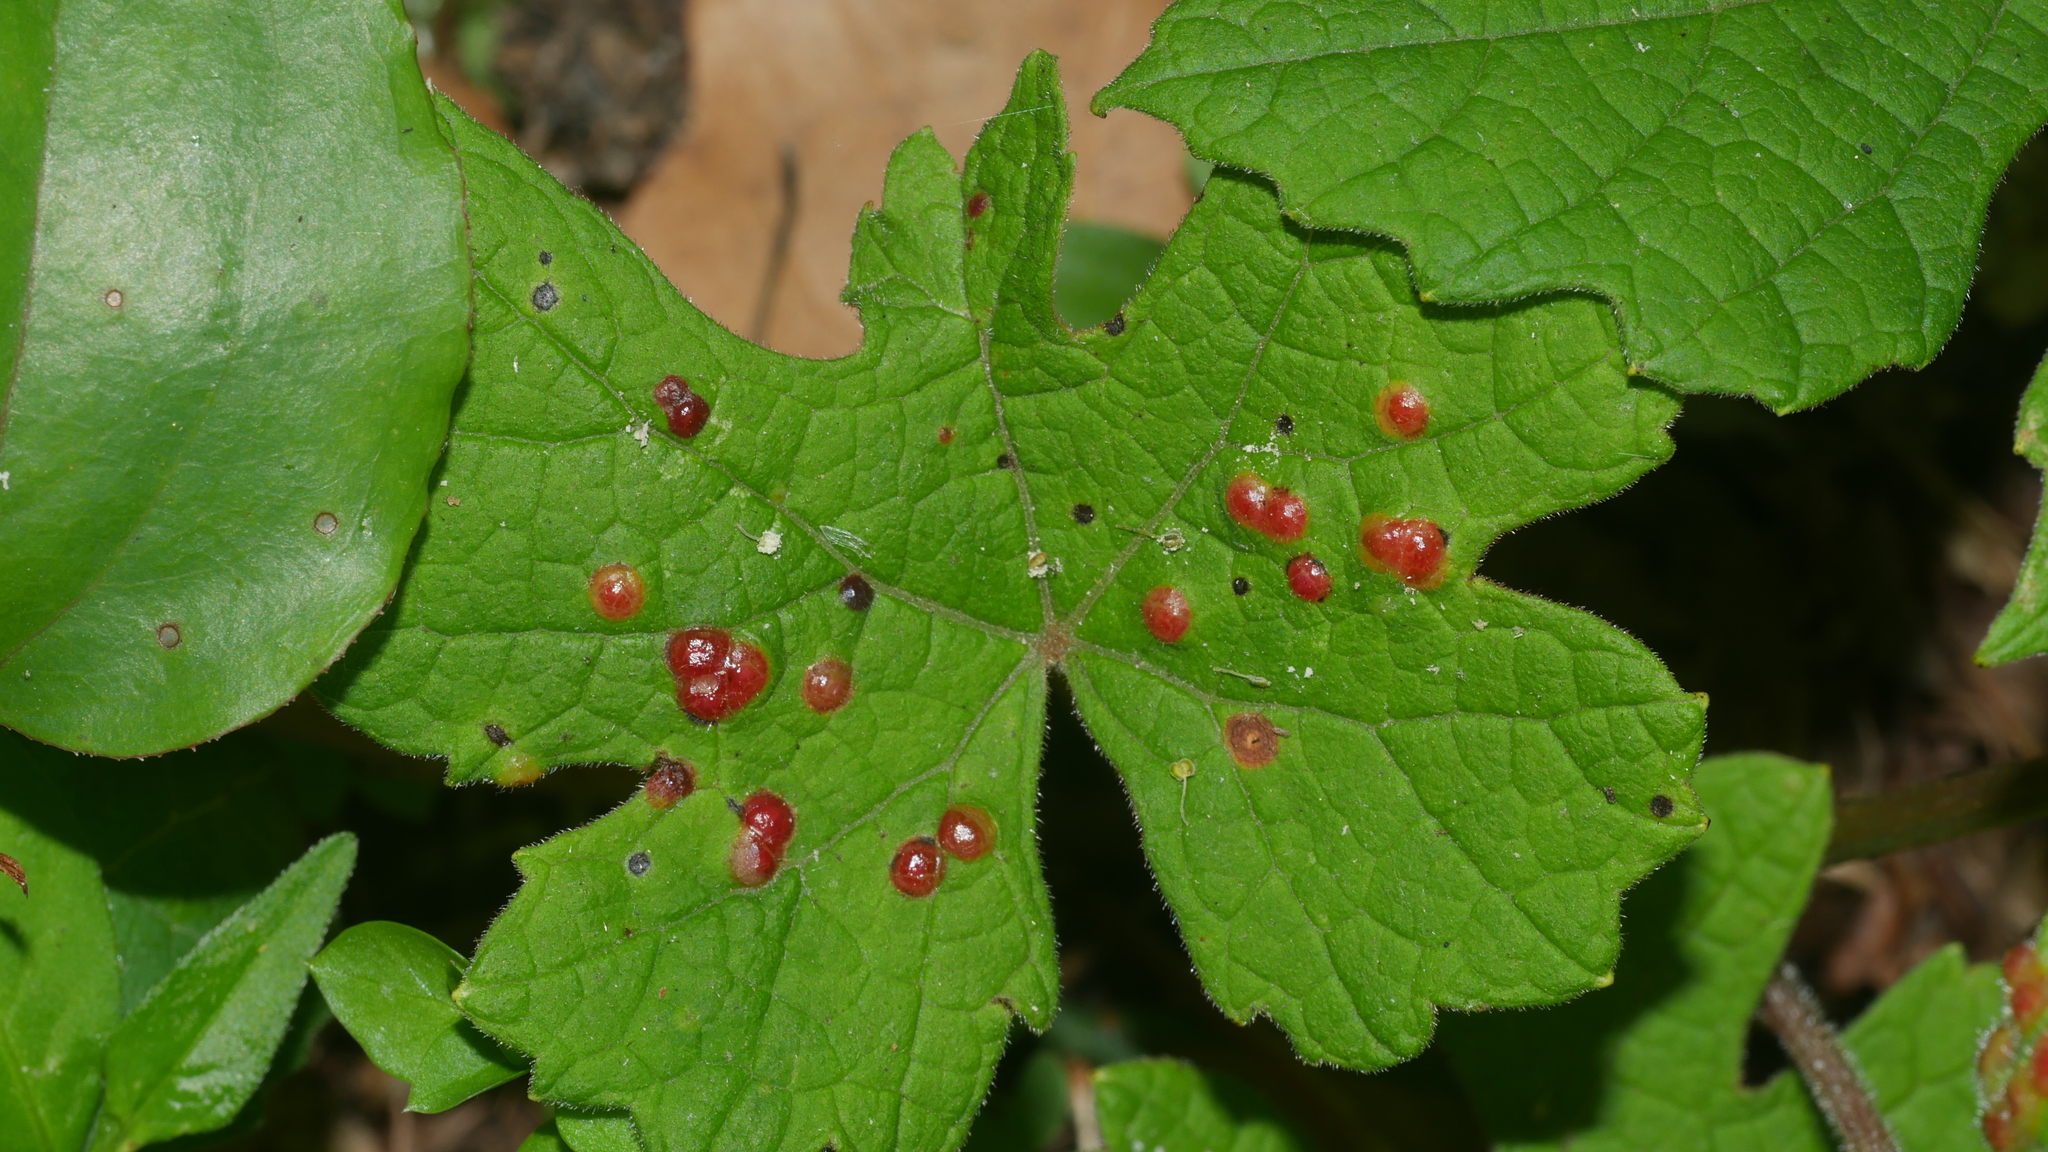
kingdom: Animalia
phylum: Arthropoda
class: Insecta
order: Diptera
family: Cecidomyiidae
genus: Vitisiella
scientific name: Vitisiella brevicauda
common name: Grape tumid gallmaker midge
